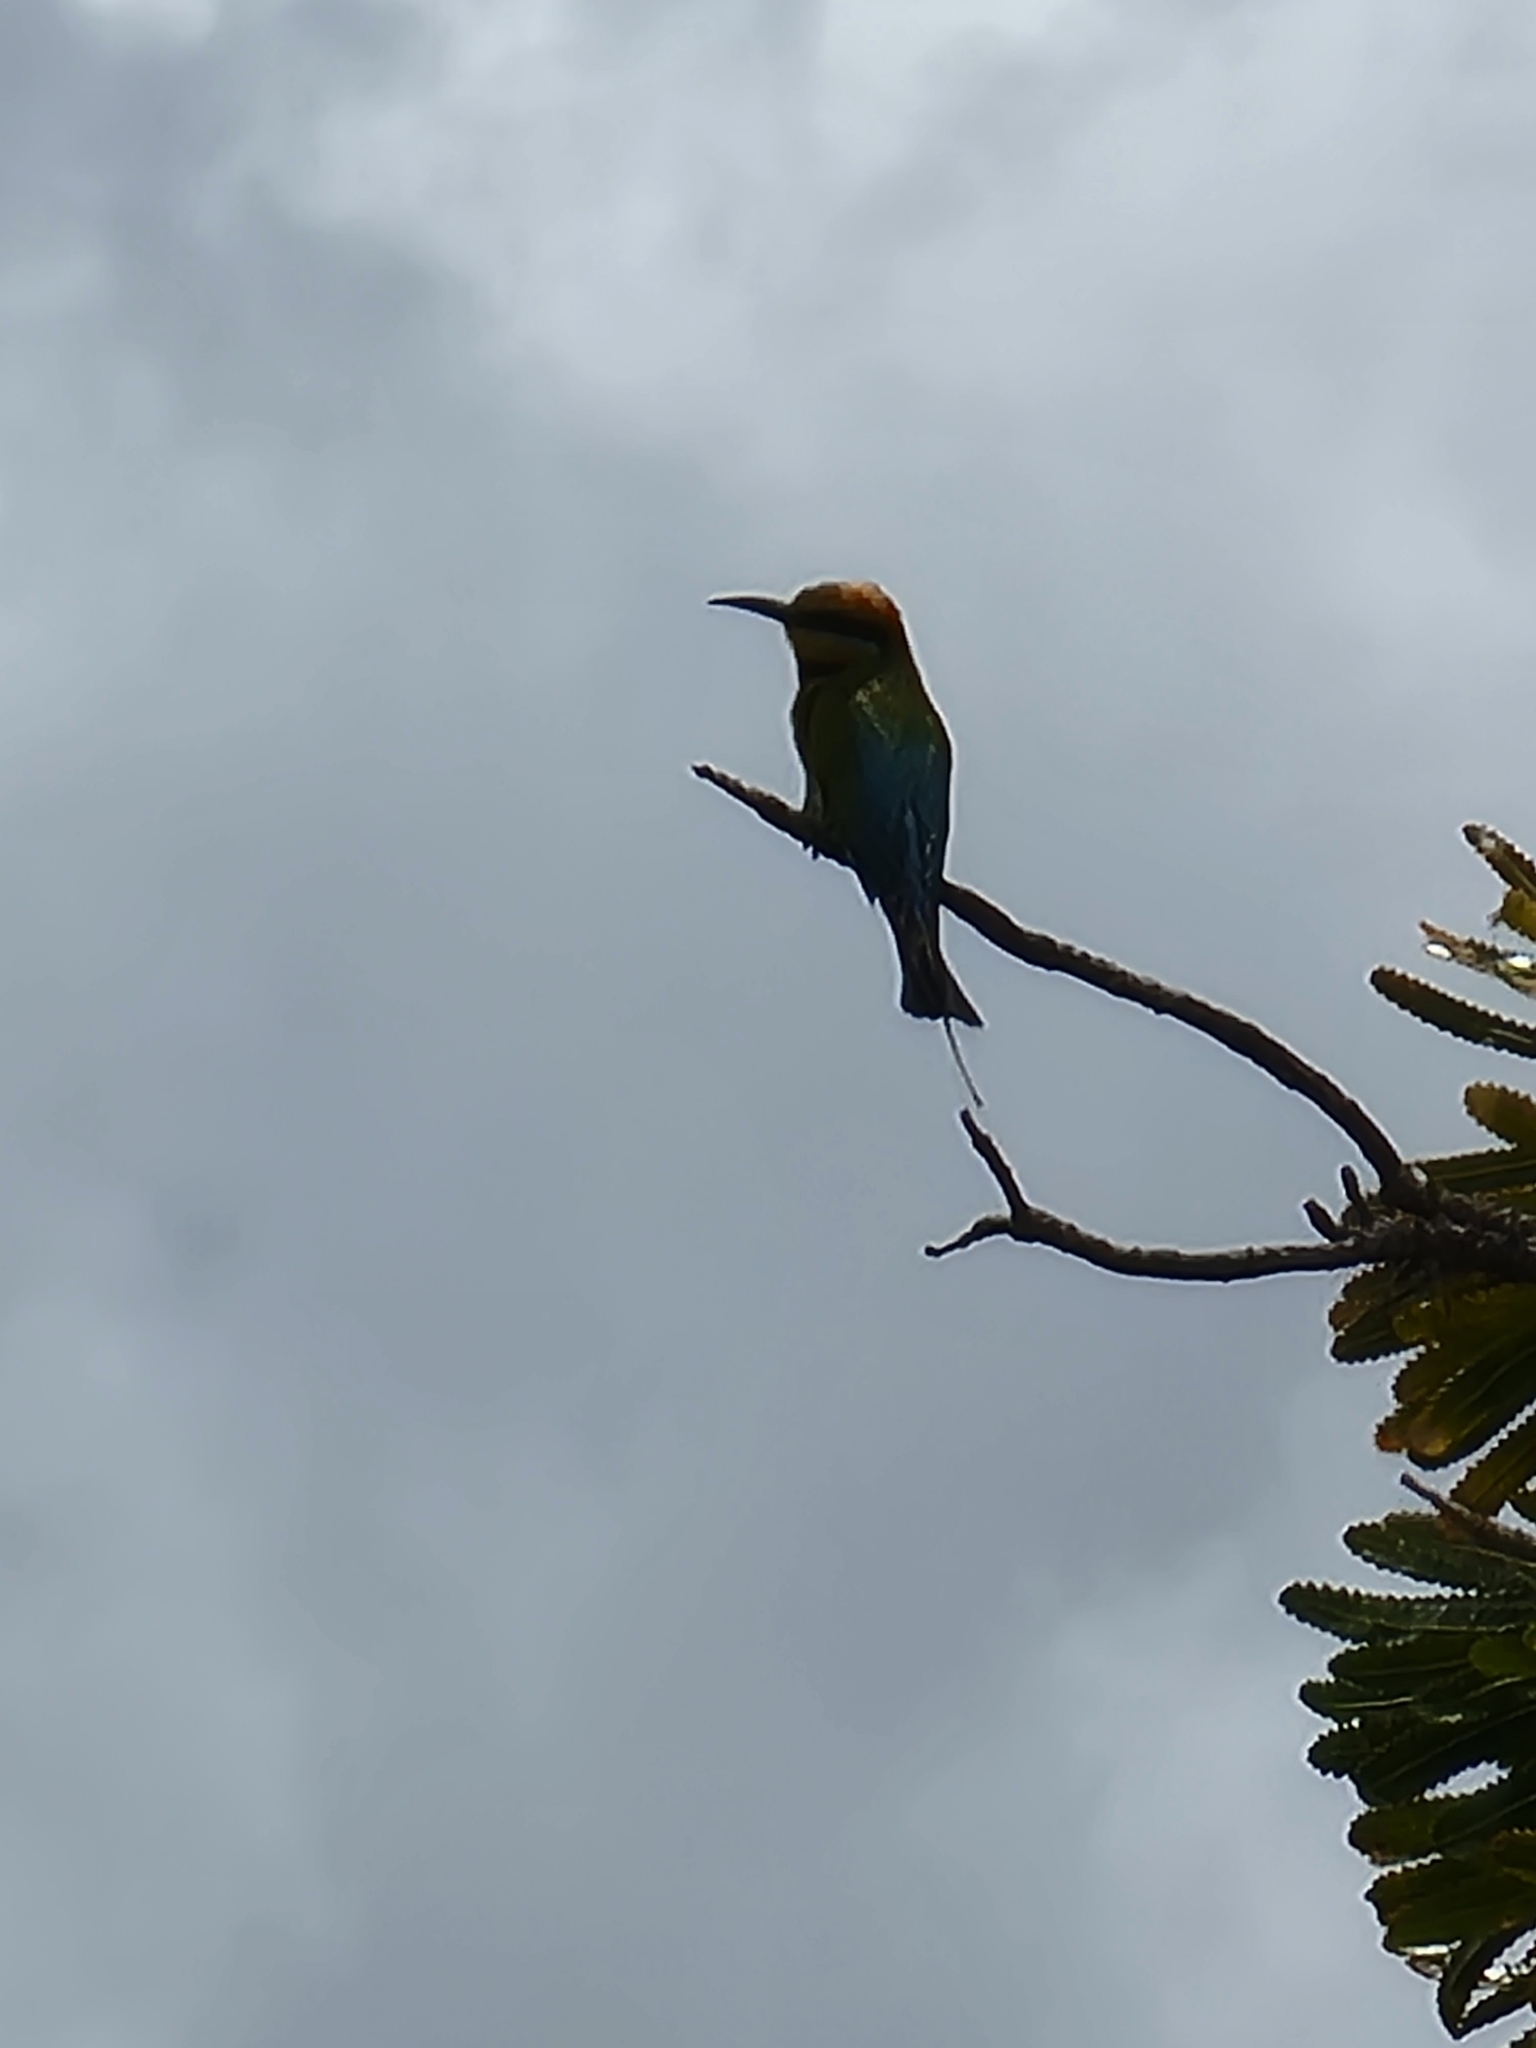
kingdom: Animalia
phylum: Chordata
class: Aves
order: Coraciiformes
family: Meropidae
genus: Merops
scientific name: Merops ornatus
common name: Rainbow bee-eater
